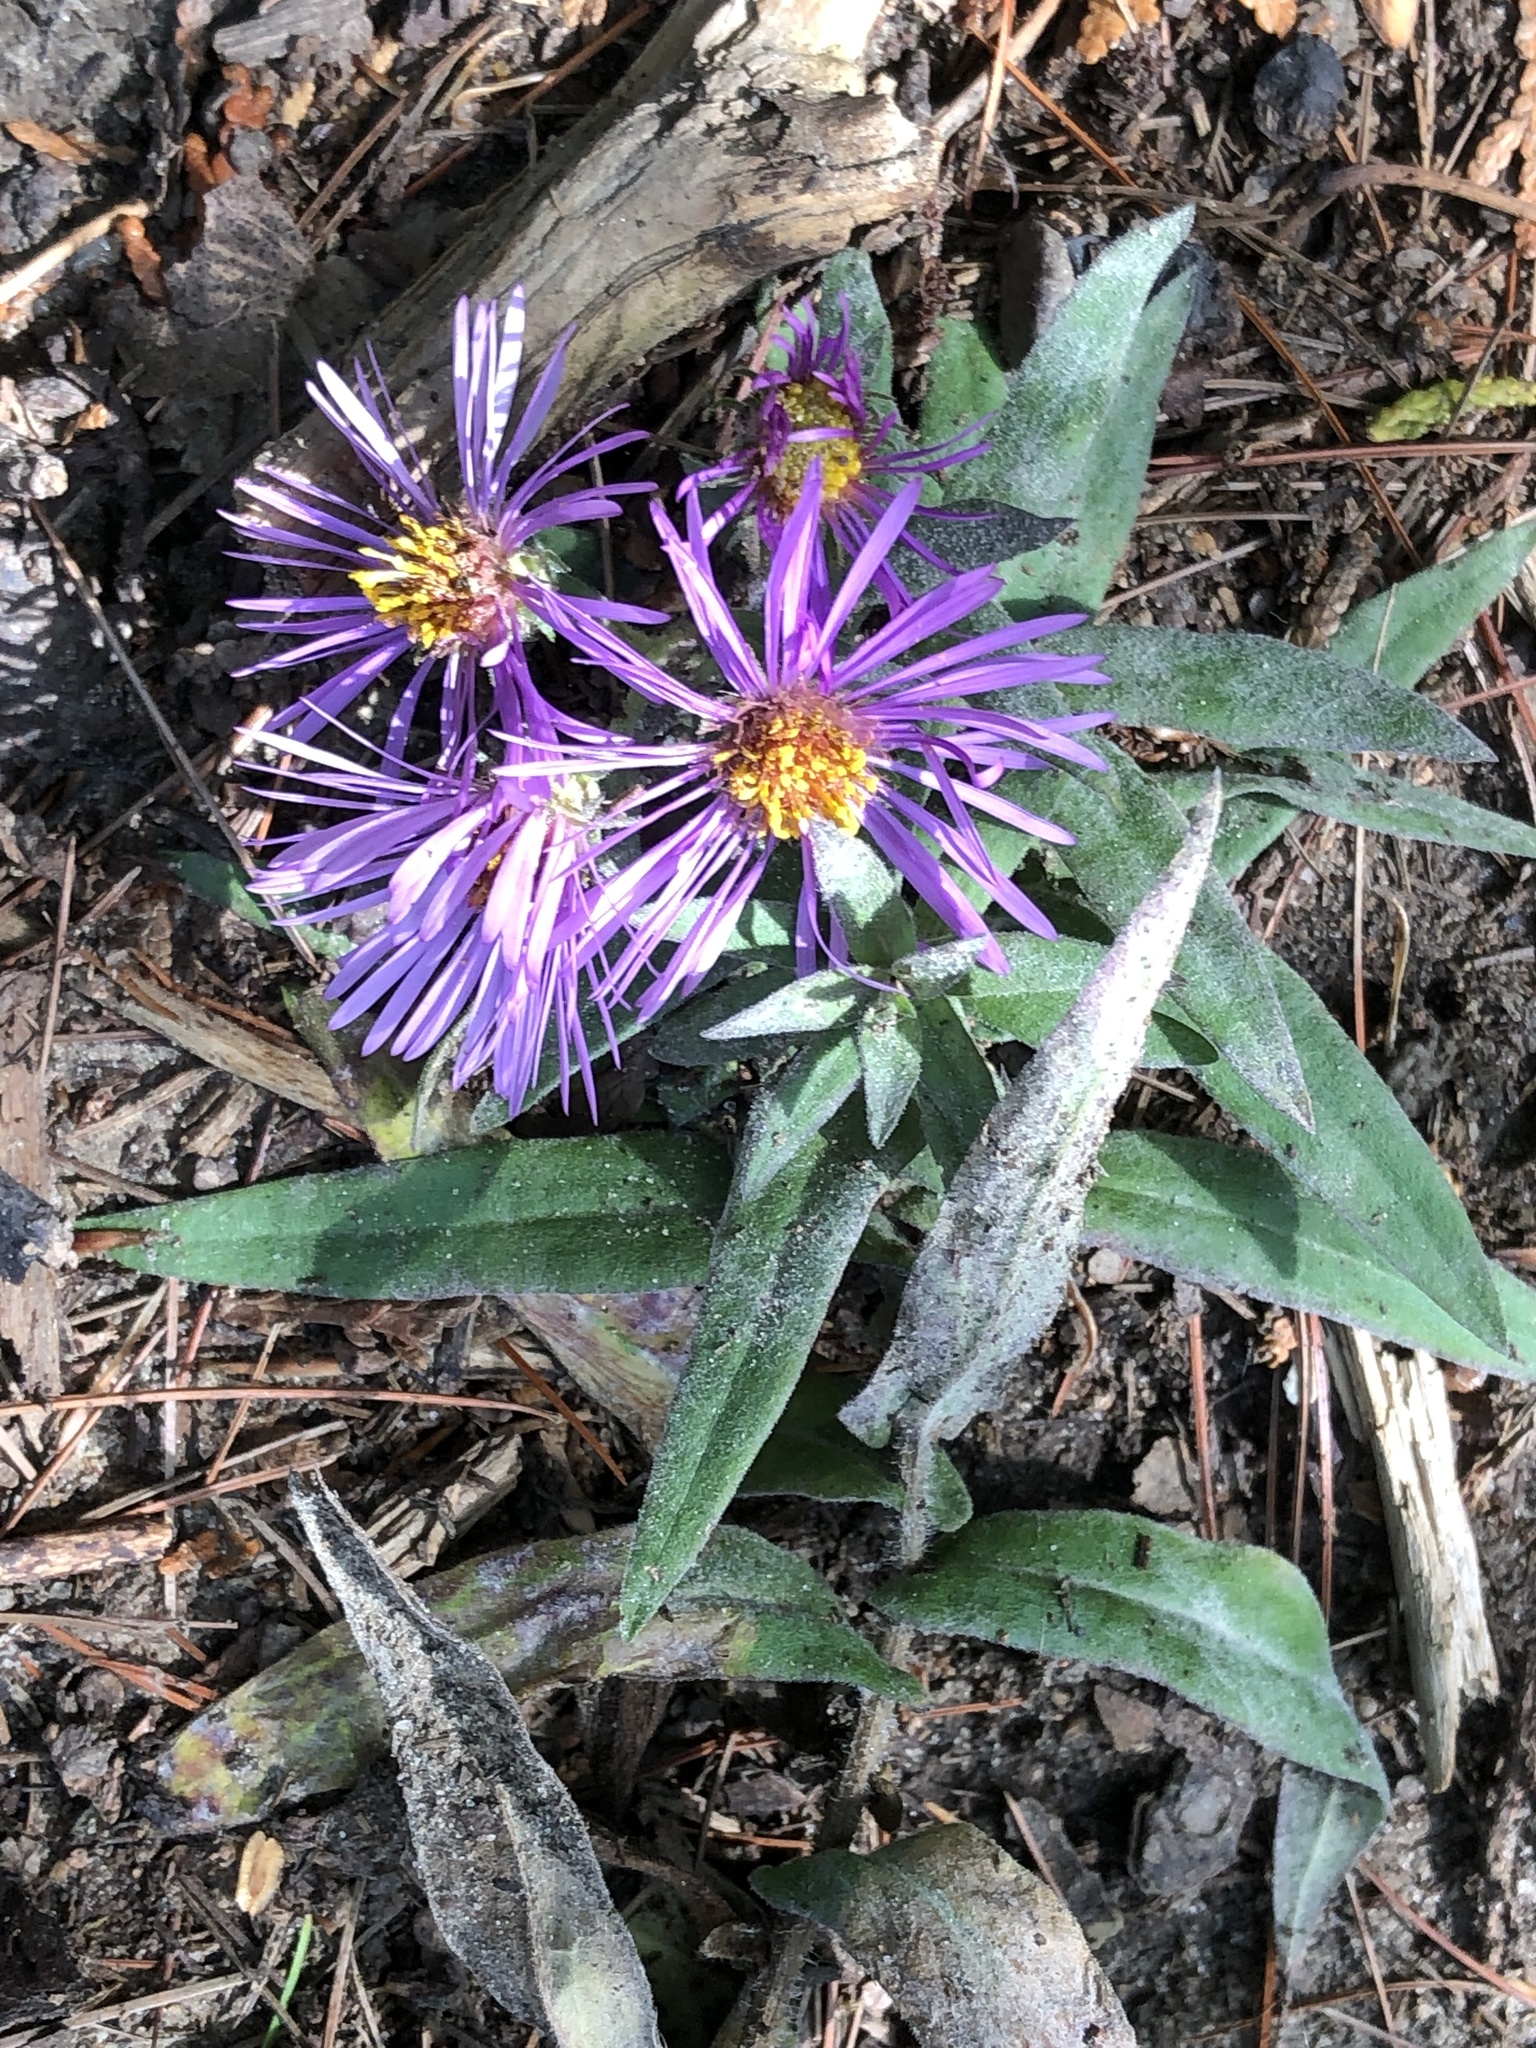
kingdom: Plantae
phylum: Tracheophyta
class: Magnoliopsida
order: Asterales
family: Asteraceae
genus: Symphyotrichum
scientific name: Symphyotrichum novae-angliae
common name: Michaelmas daisy
